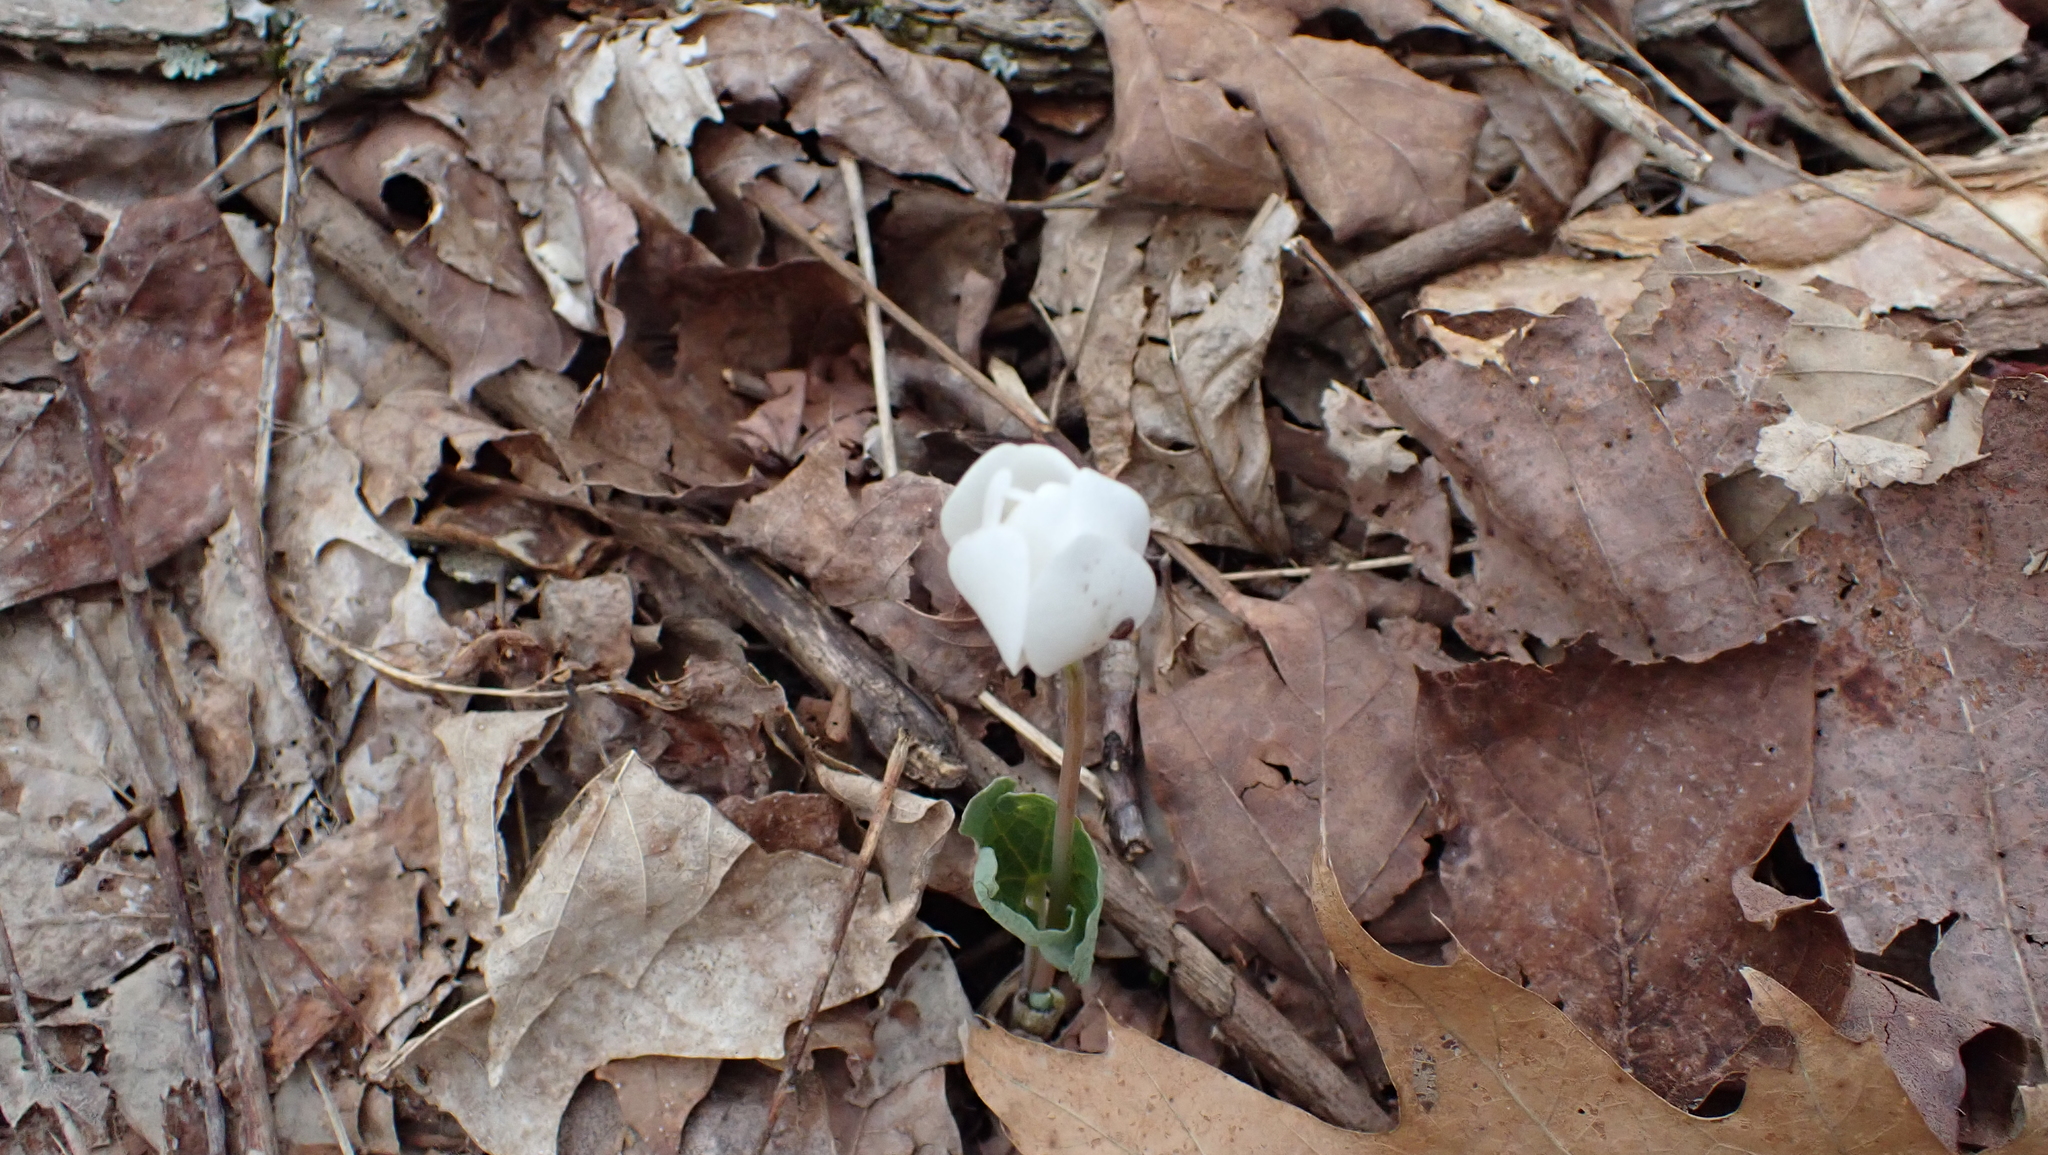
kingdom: Plantae
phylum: Tracheophyta
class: Magnoliopsida
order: Ranunculales
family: Papaveraceae
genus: Sanguinaria
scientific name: Sanguinaria canadensis
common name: Bloodroot
